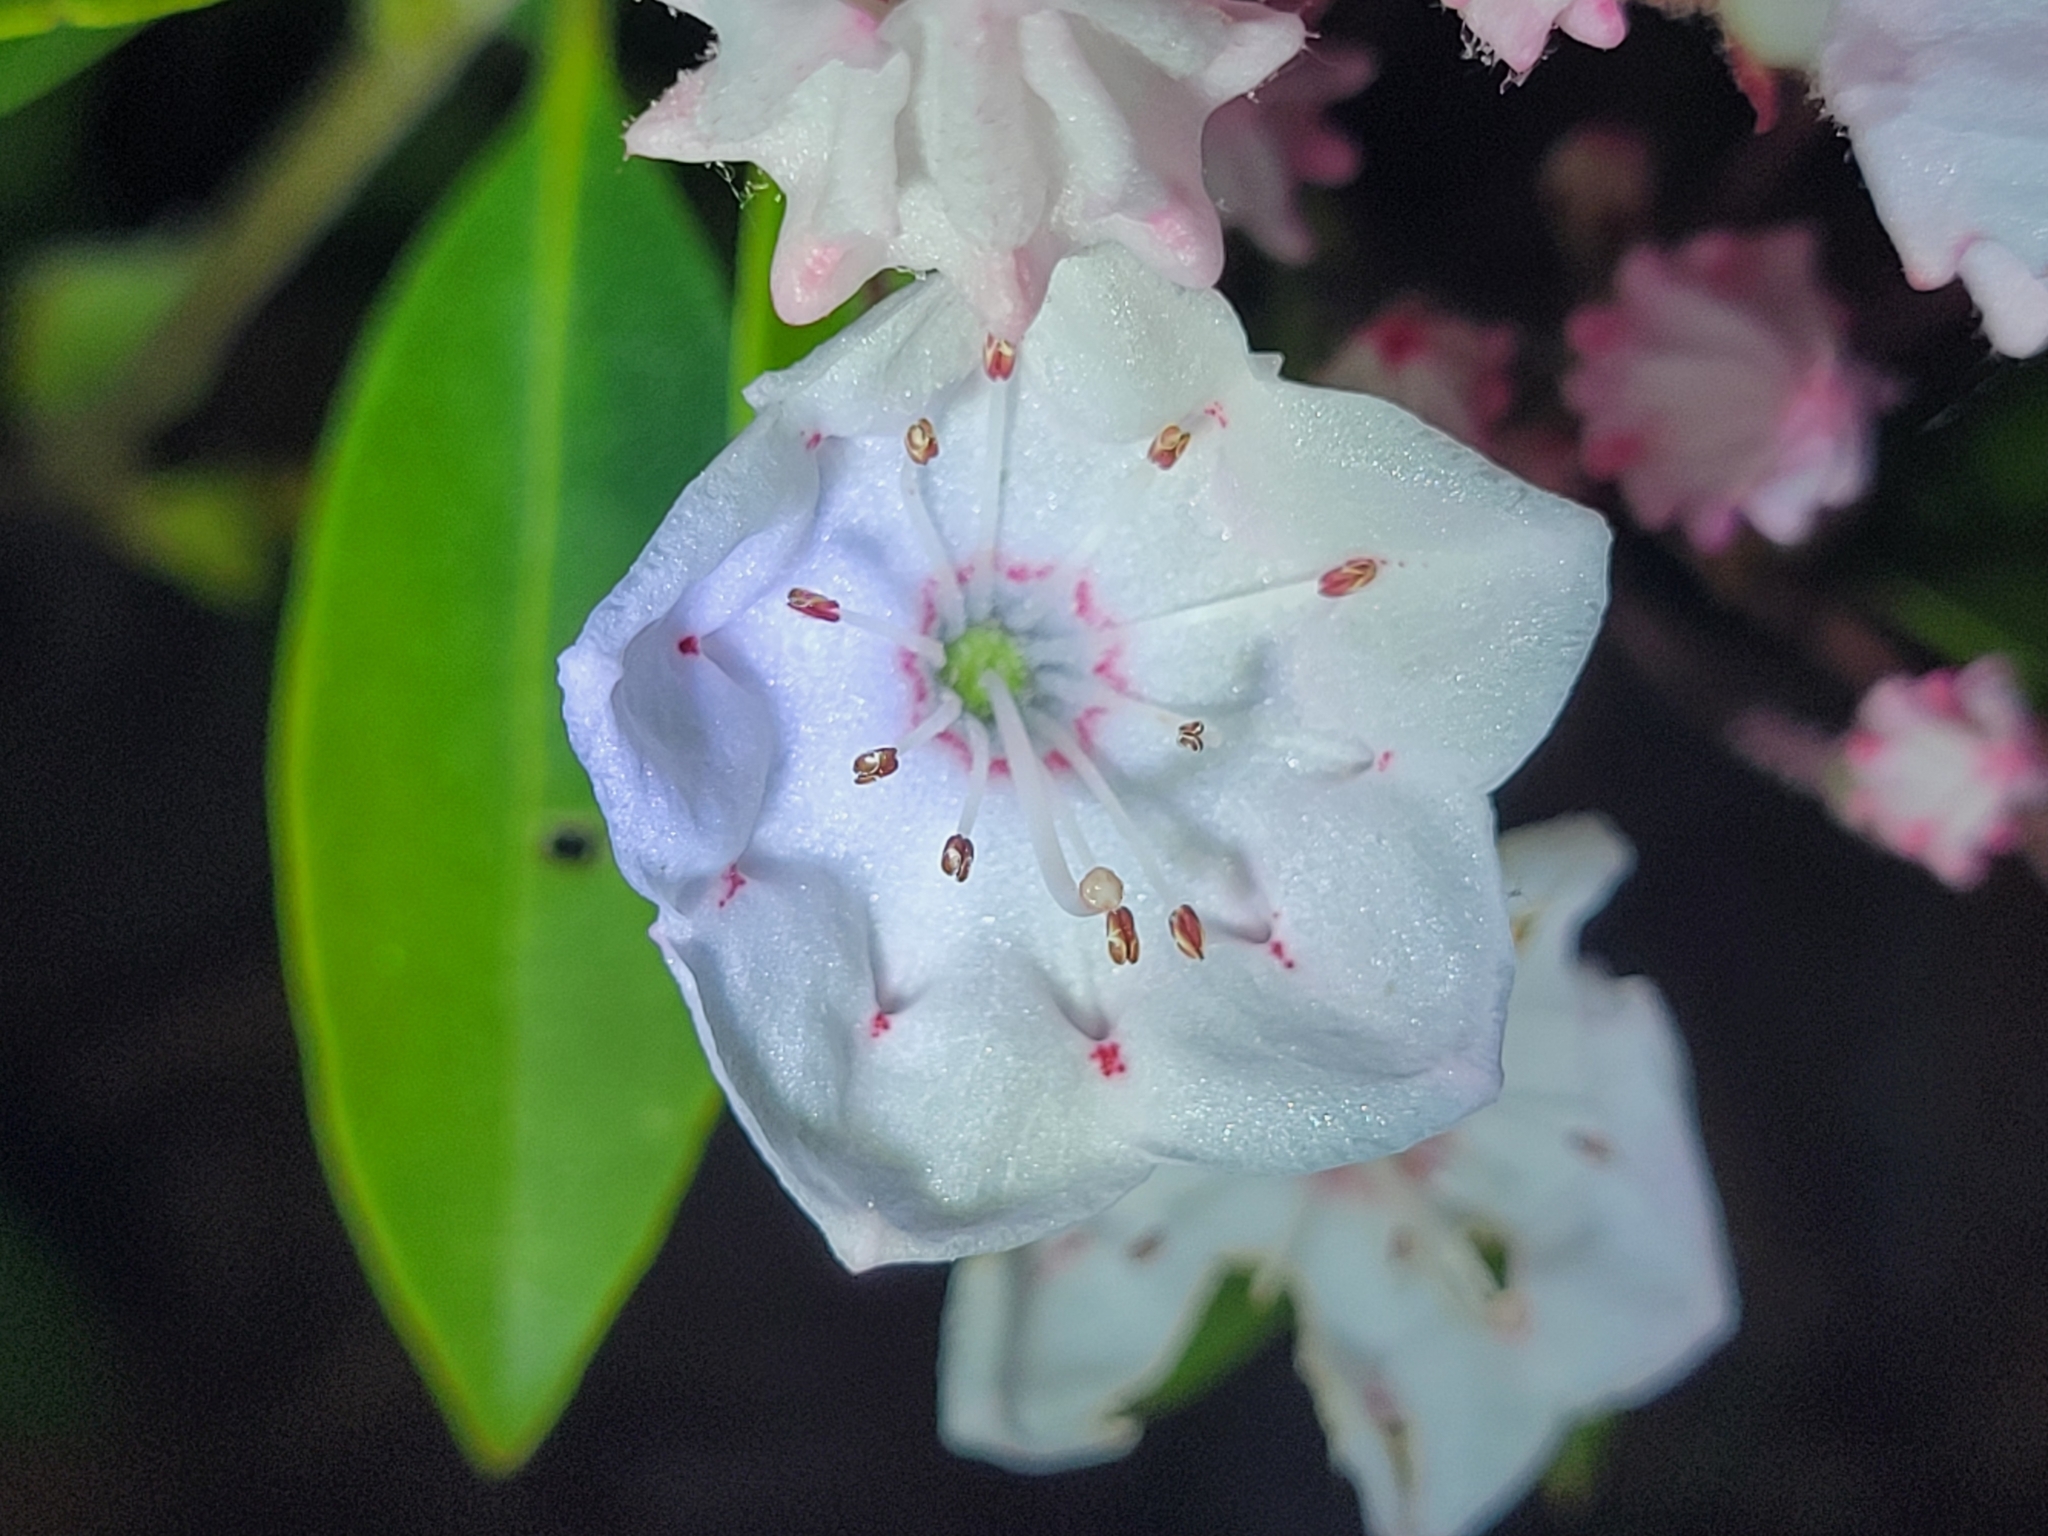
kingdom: Plantae
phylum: Tracheophyta
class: Magnoliopsida
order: Ericales
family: Ericaceae
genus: Kalmia
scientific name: Kalmia latifolia
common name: Mountain-laurel
